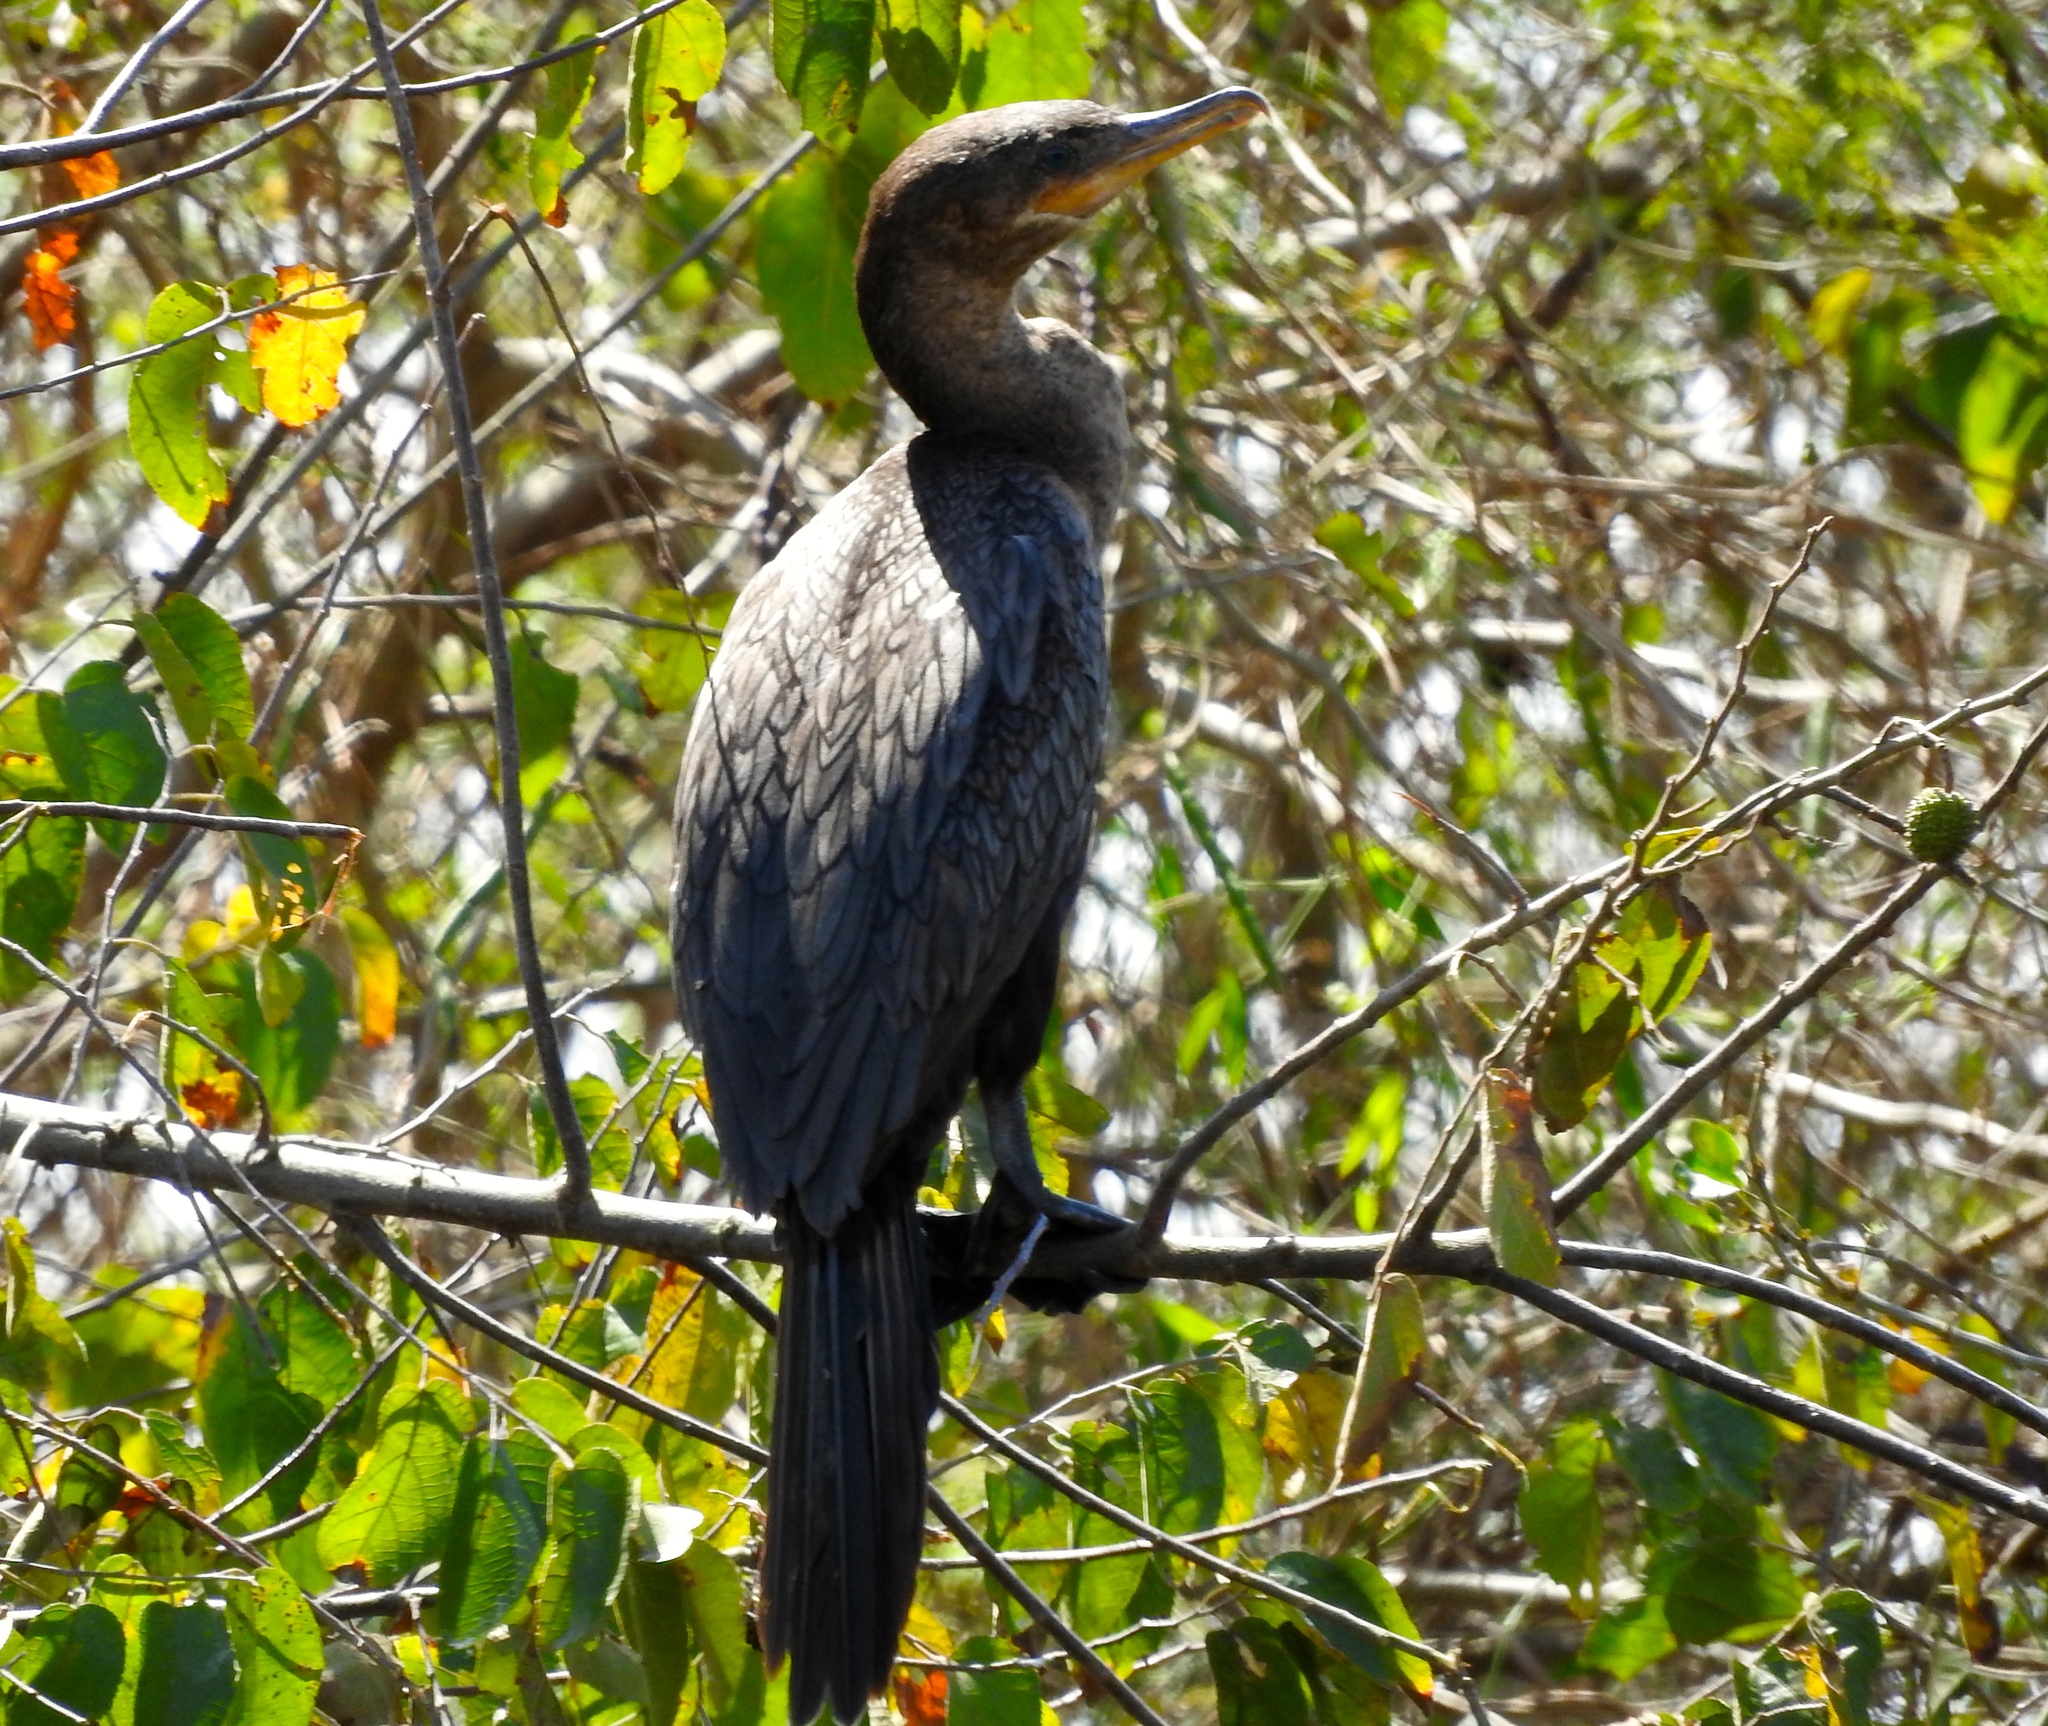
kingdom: Animalia
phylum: Chordata
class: Aves
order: Suliformes
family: Phalacrocoracidae
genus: Phalacrocorax
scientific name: Phalacrocorax brasilianus
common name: Neotropic cormorant
